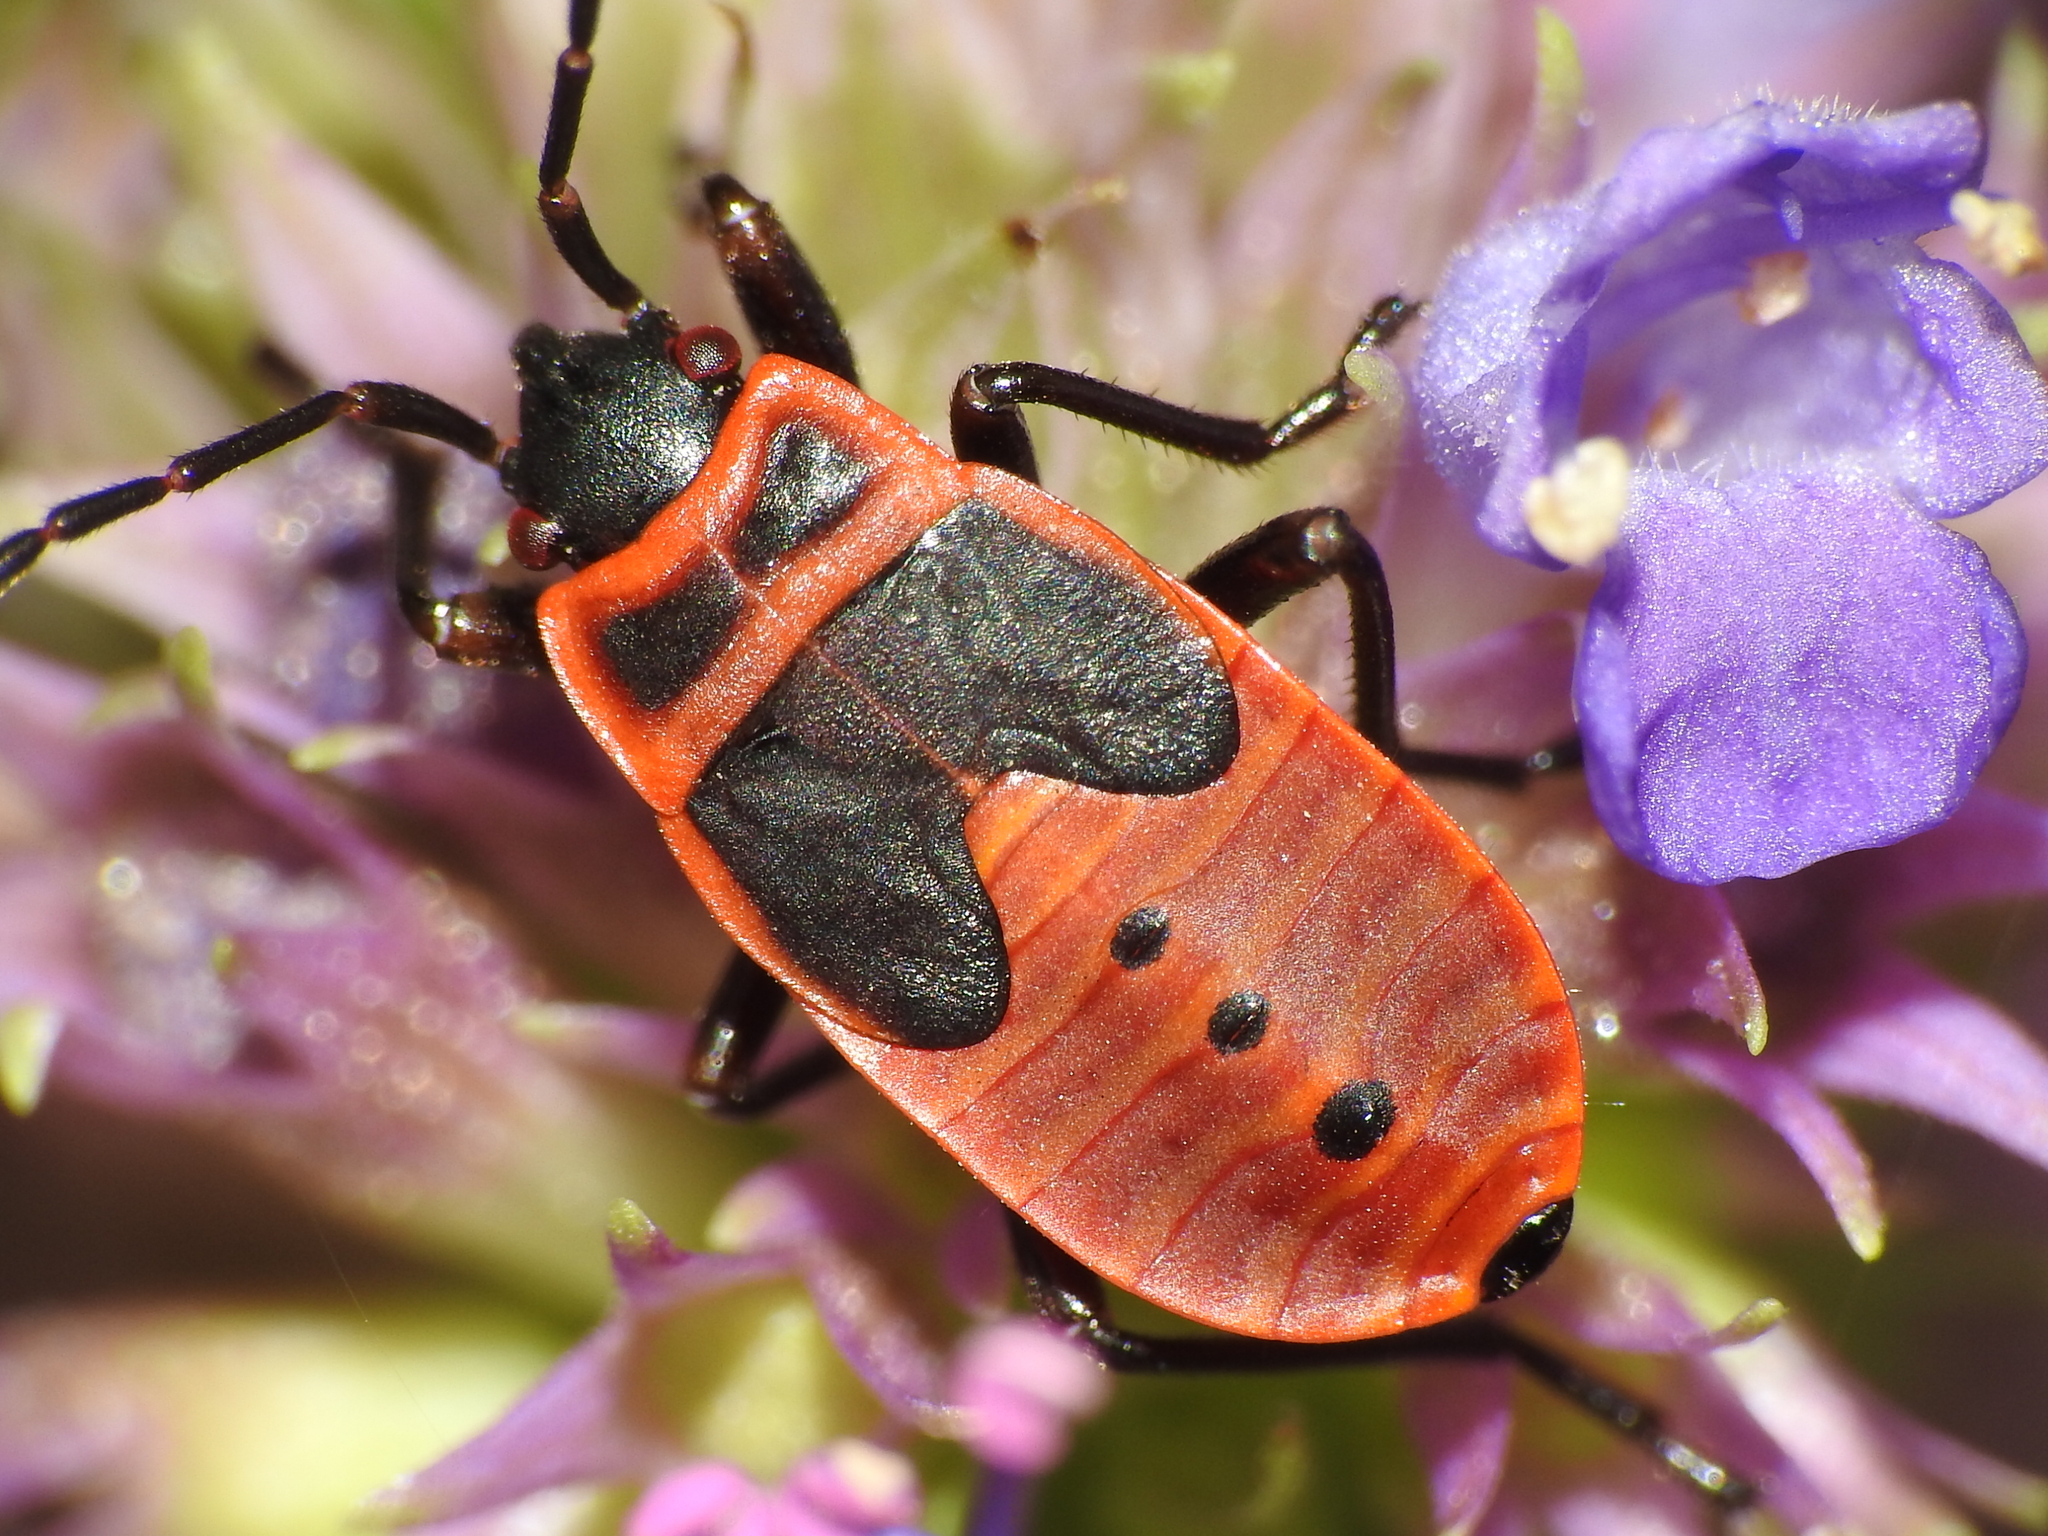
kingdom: Animalia
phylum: Arthropoda
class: Insecta
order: Hemiptera
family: Pyrrhocoridae
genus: Pyrrhocoris
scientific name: Pyrrhocoris apterus
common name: Firebug
